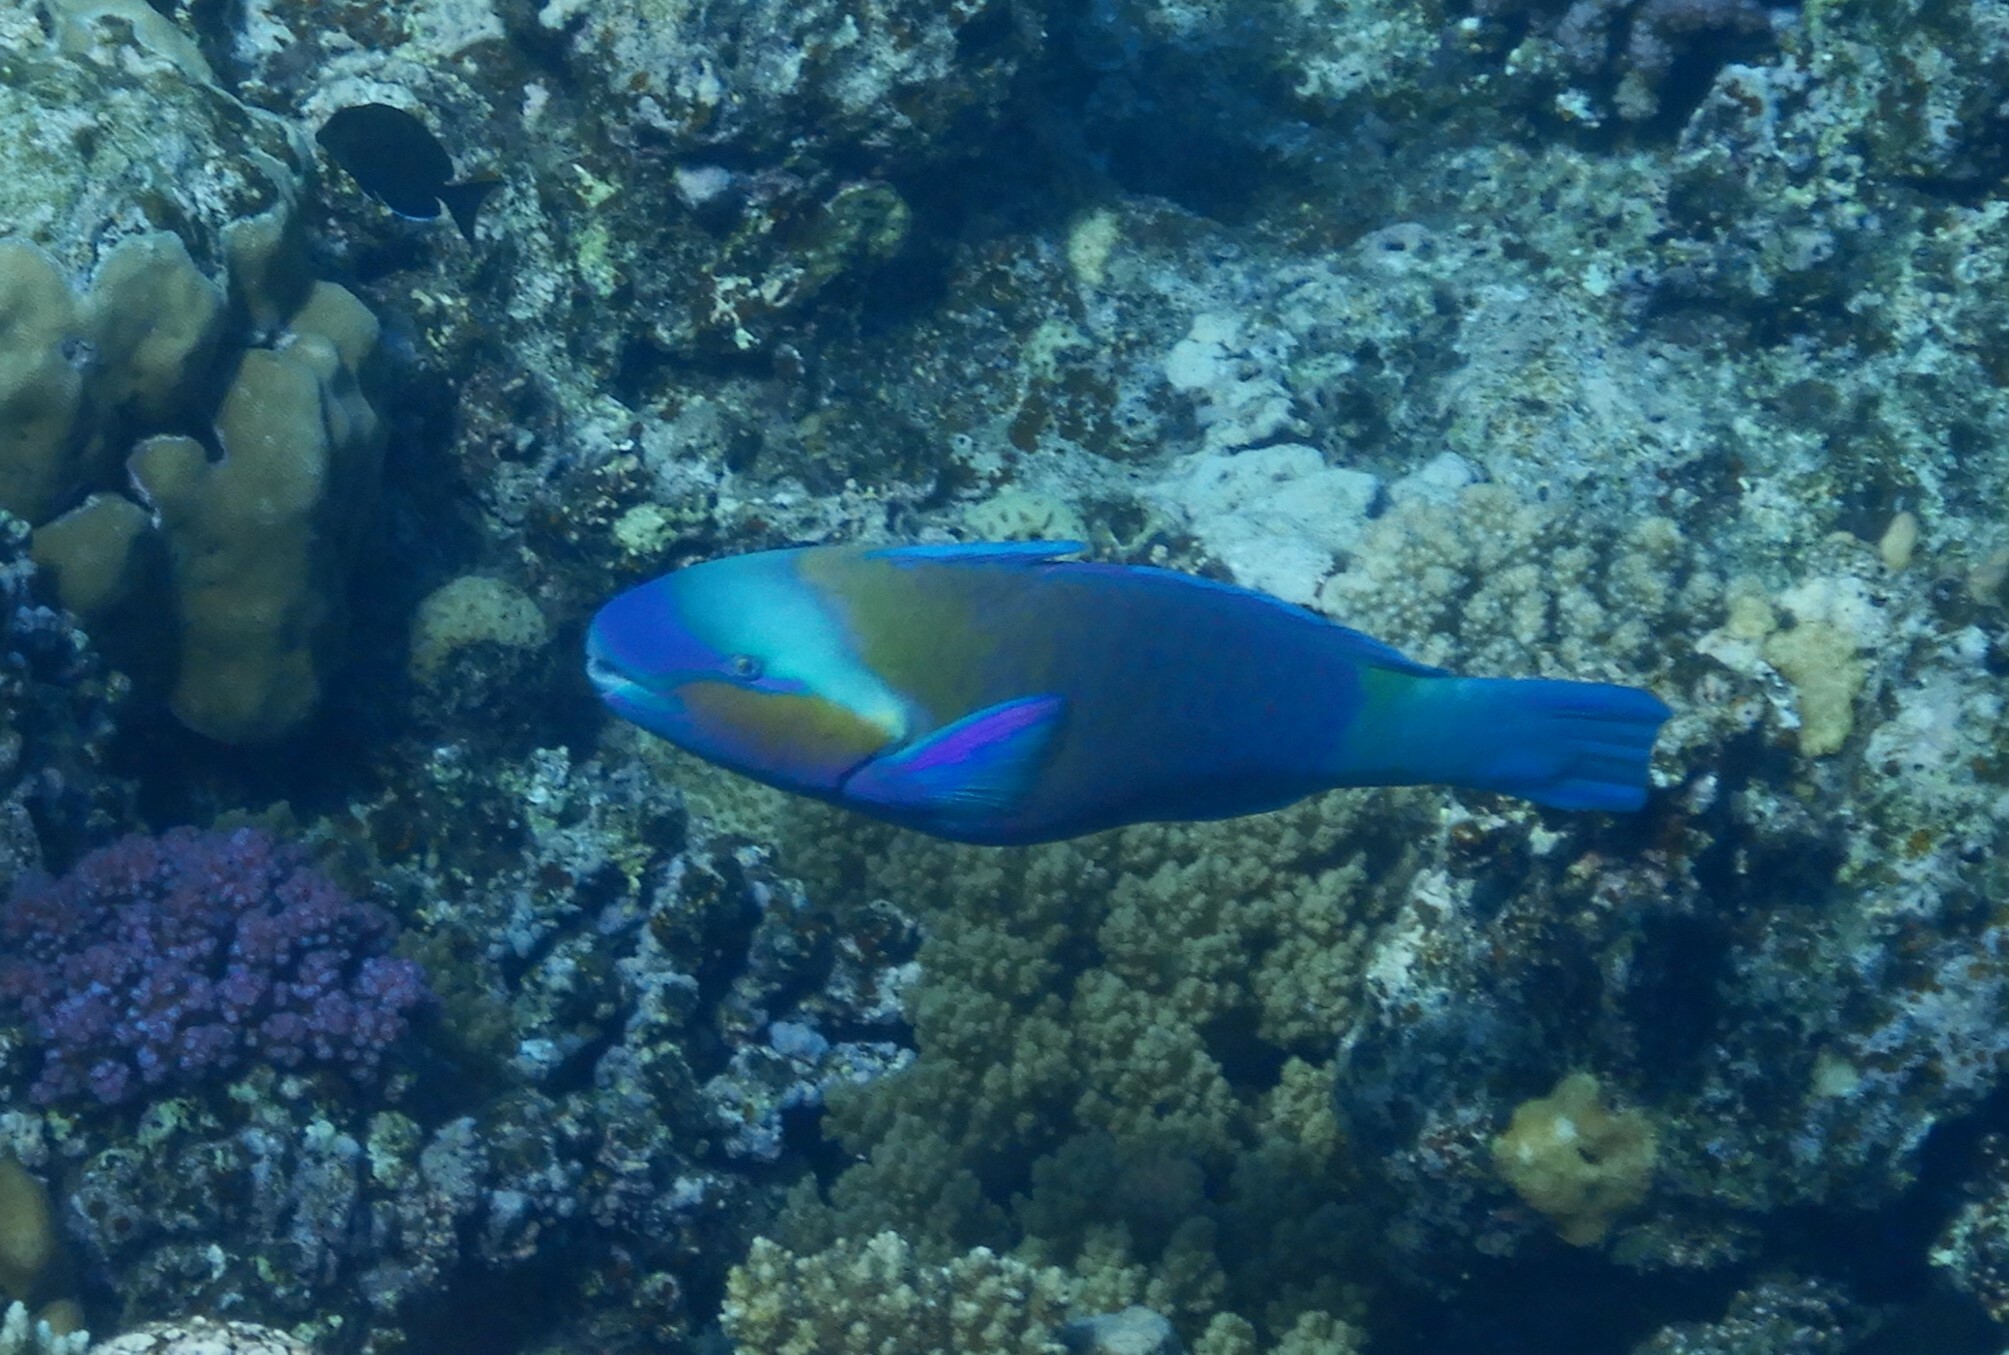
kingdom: Animalia
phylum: Chordata
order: Perciformes
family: Scaridae
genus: Chlorurus
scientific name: Chlorurus sordidus
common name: Bullethead parrotfish
